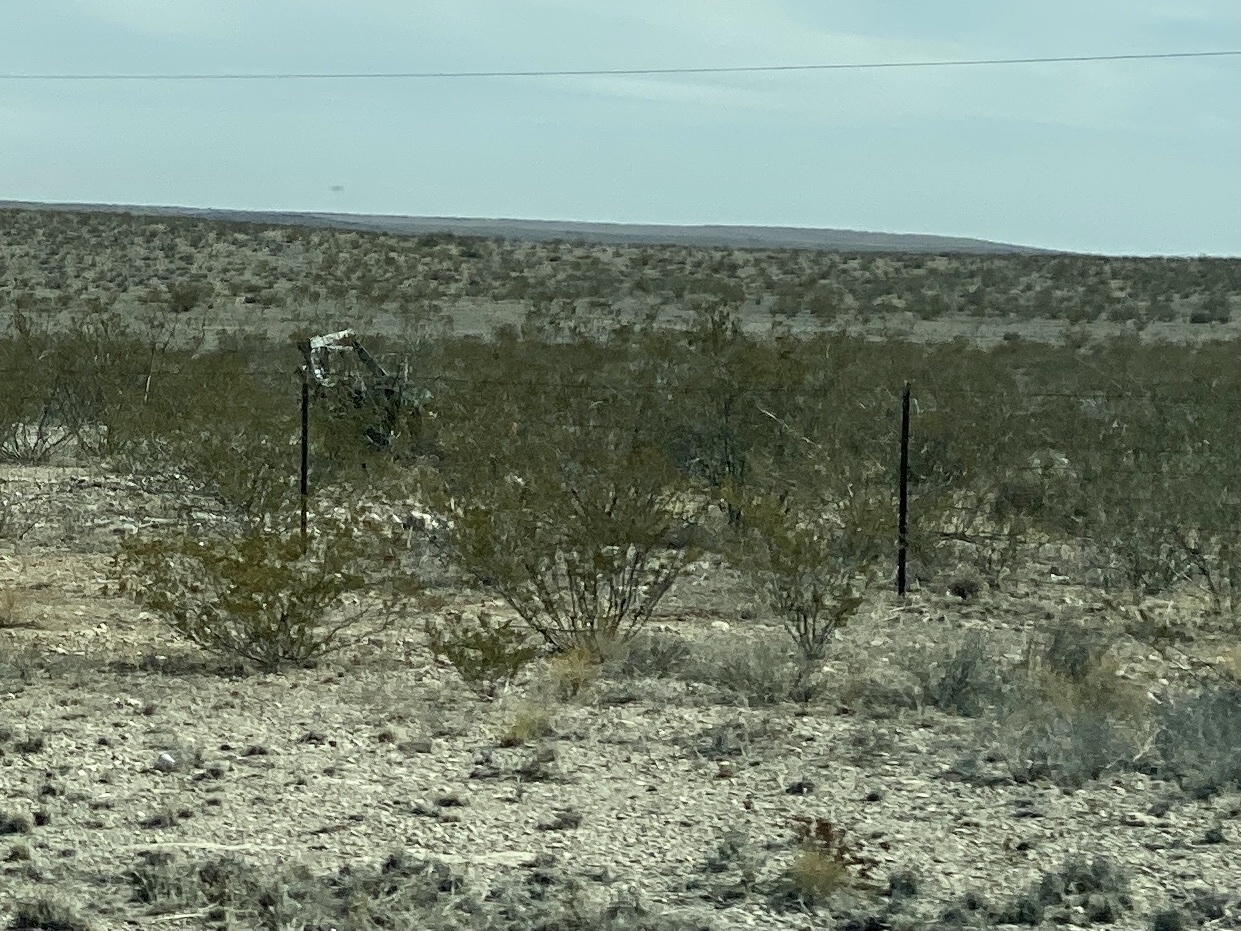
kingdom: Plantae
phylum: Tracheophyta
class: Magnoliopsida
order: Zygophyllales
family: Zygophyllaceae
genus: Larrea
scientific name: Larrea tridentata
